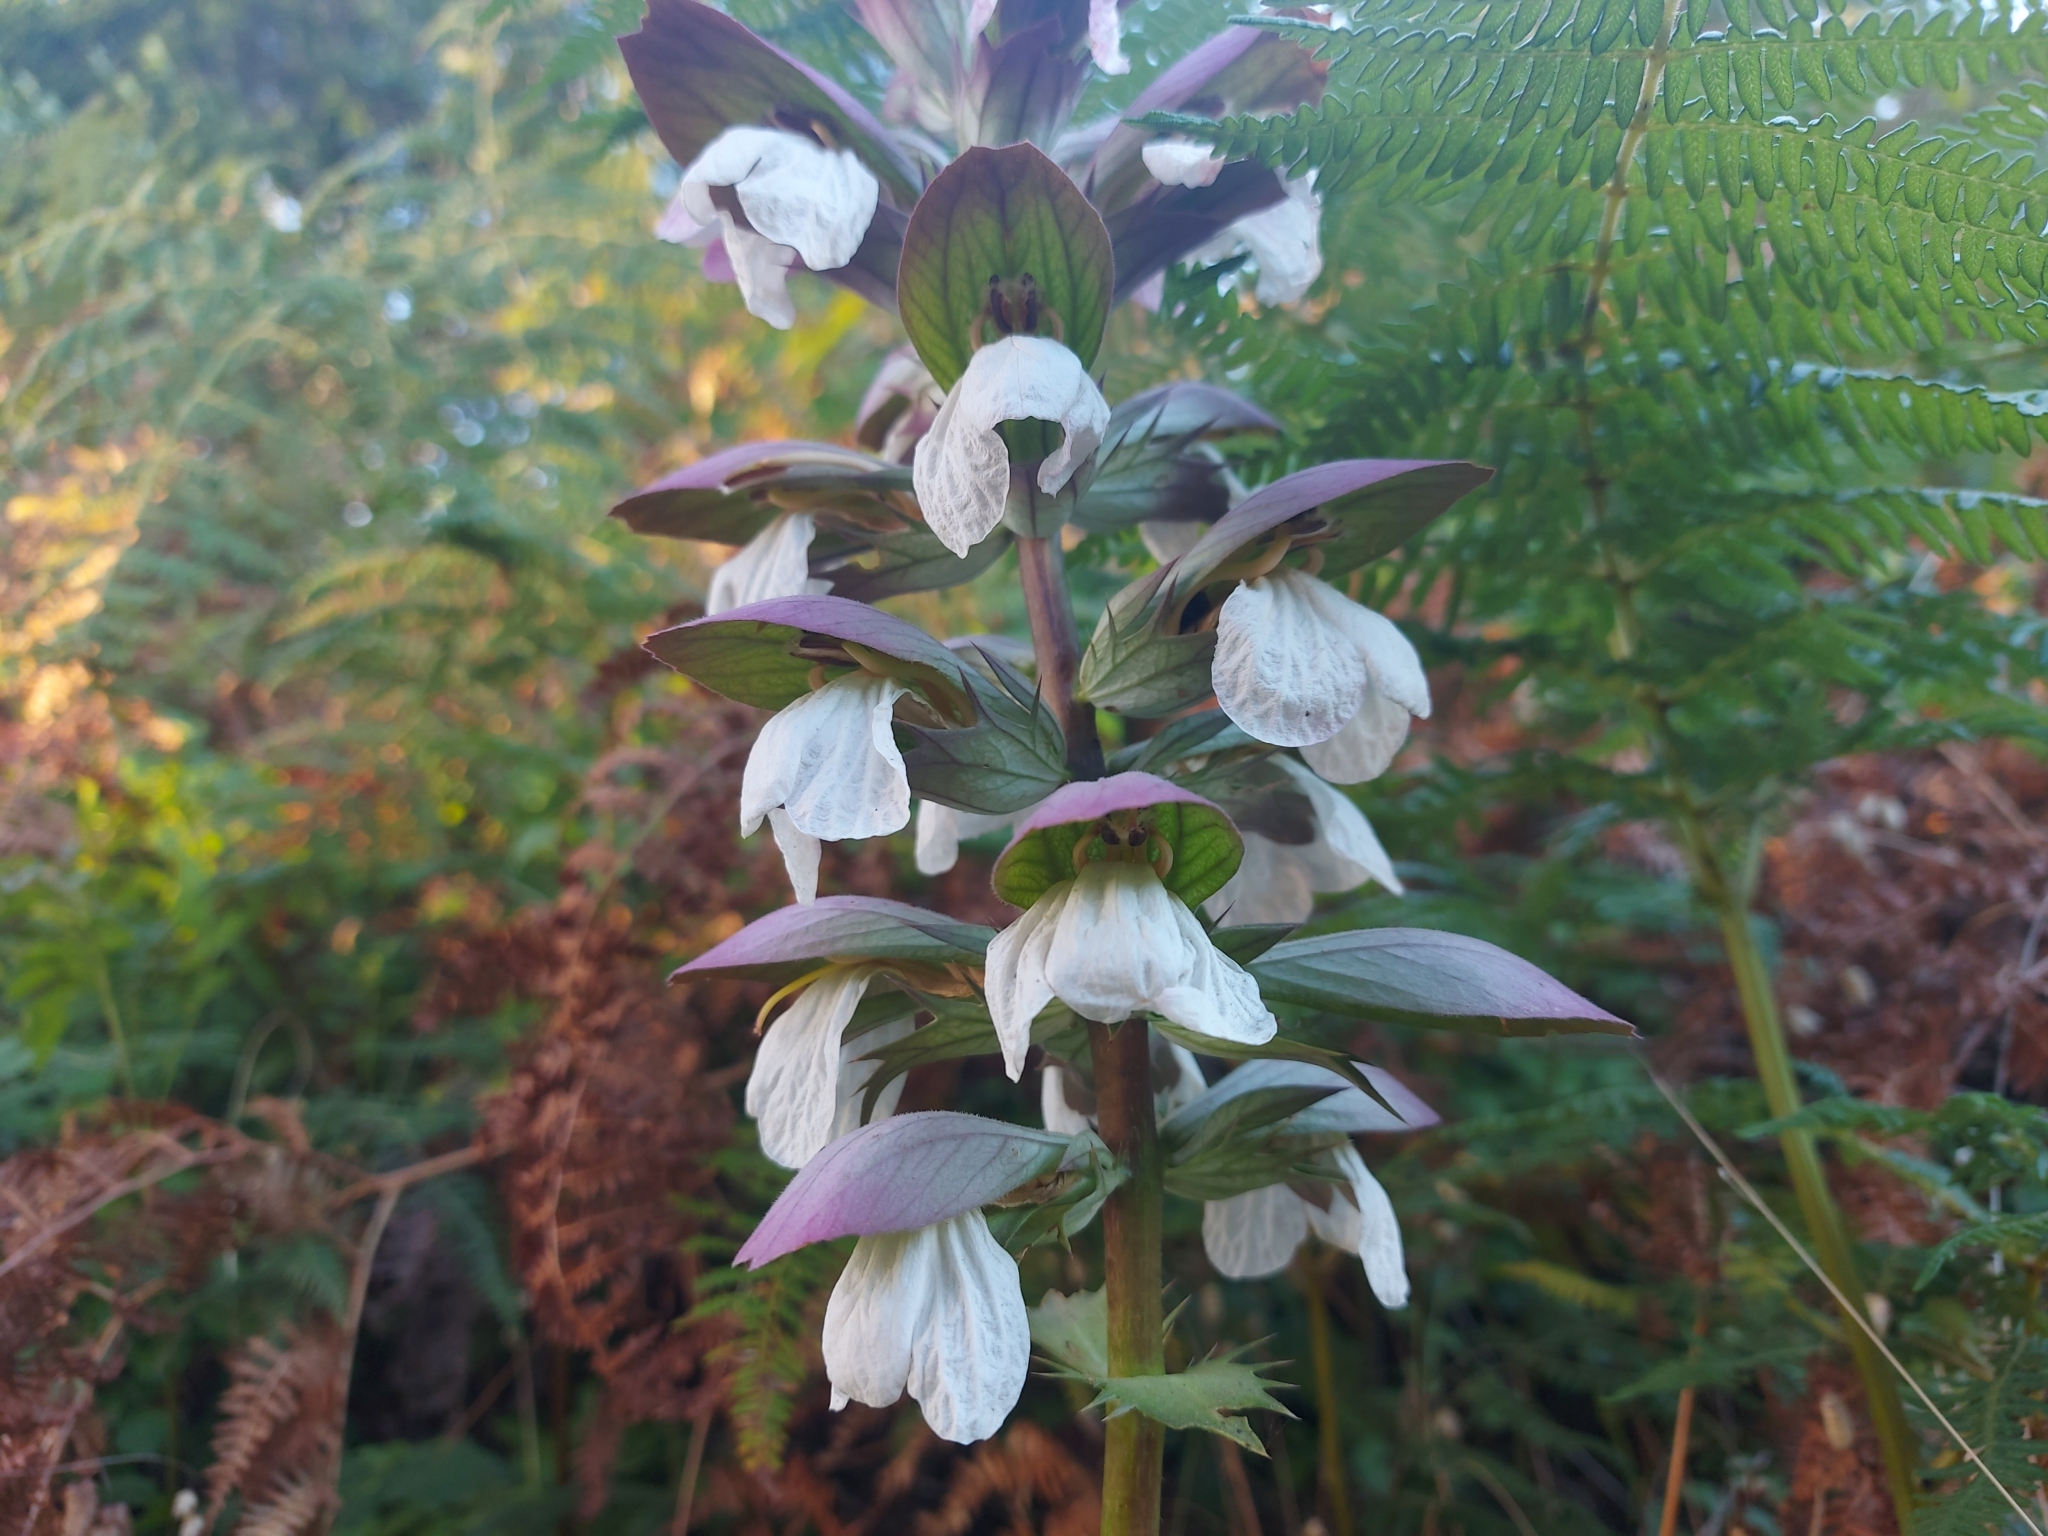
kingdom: Plantae
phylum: Tracheophyta
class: Magnoliopsida
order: Lamiales
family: Acanthaceae
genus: Acanthus
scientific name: Acanthus mollis
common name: Bear's-breech
